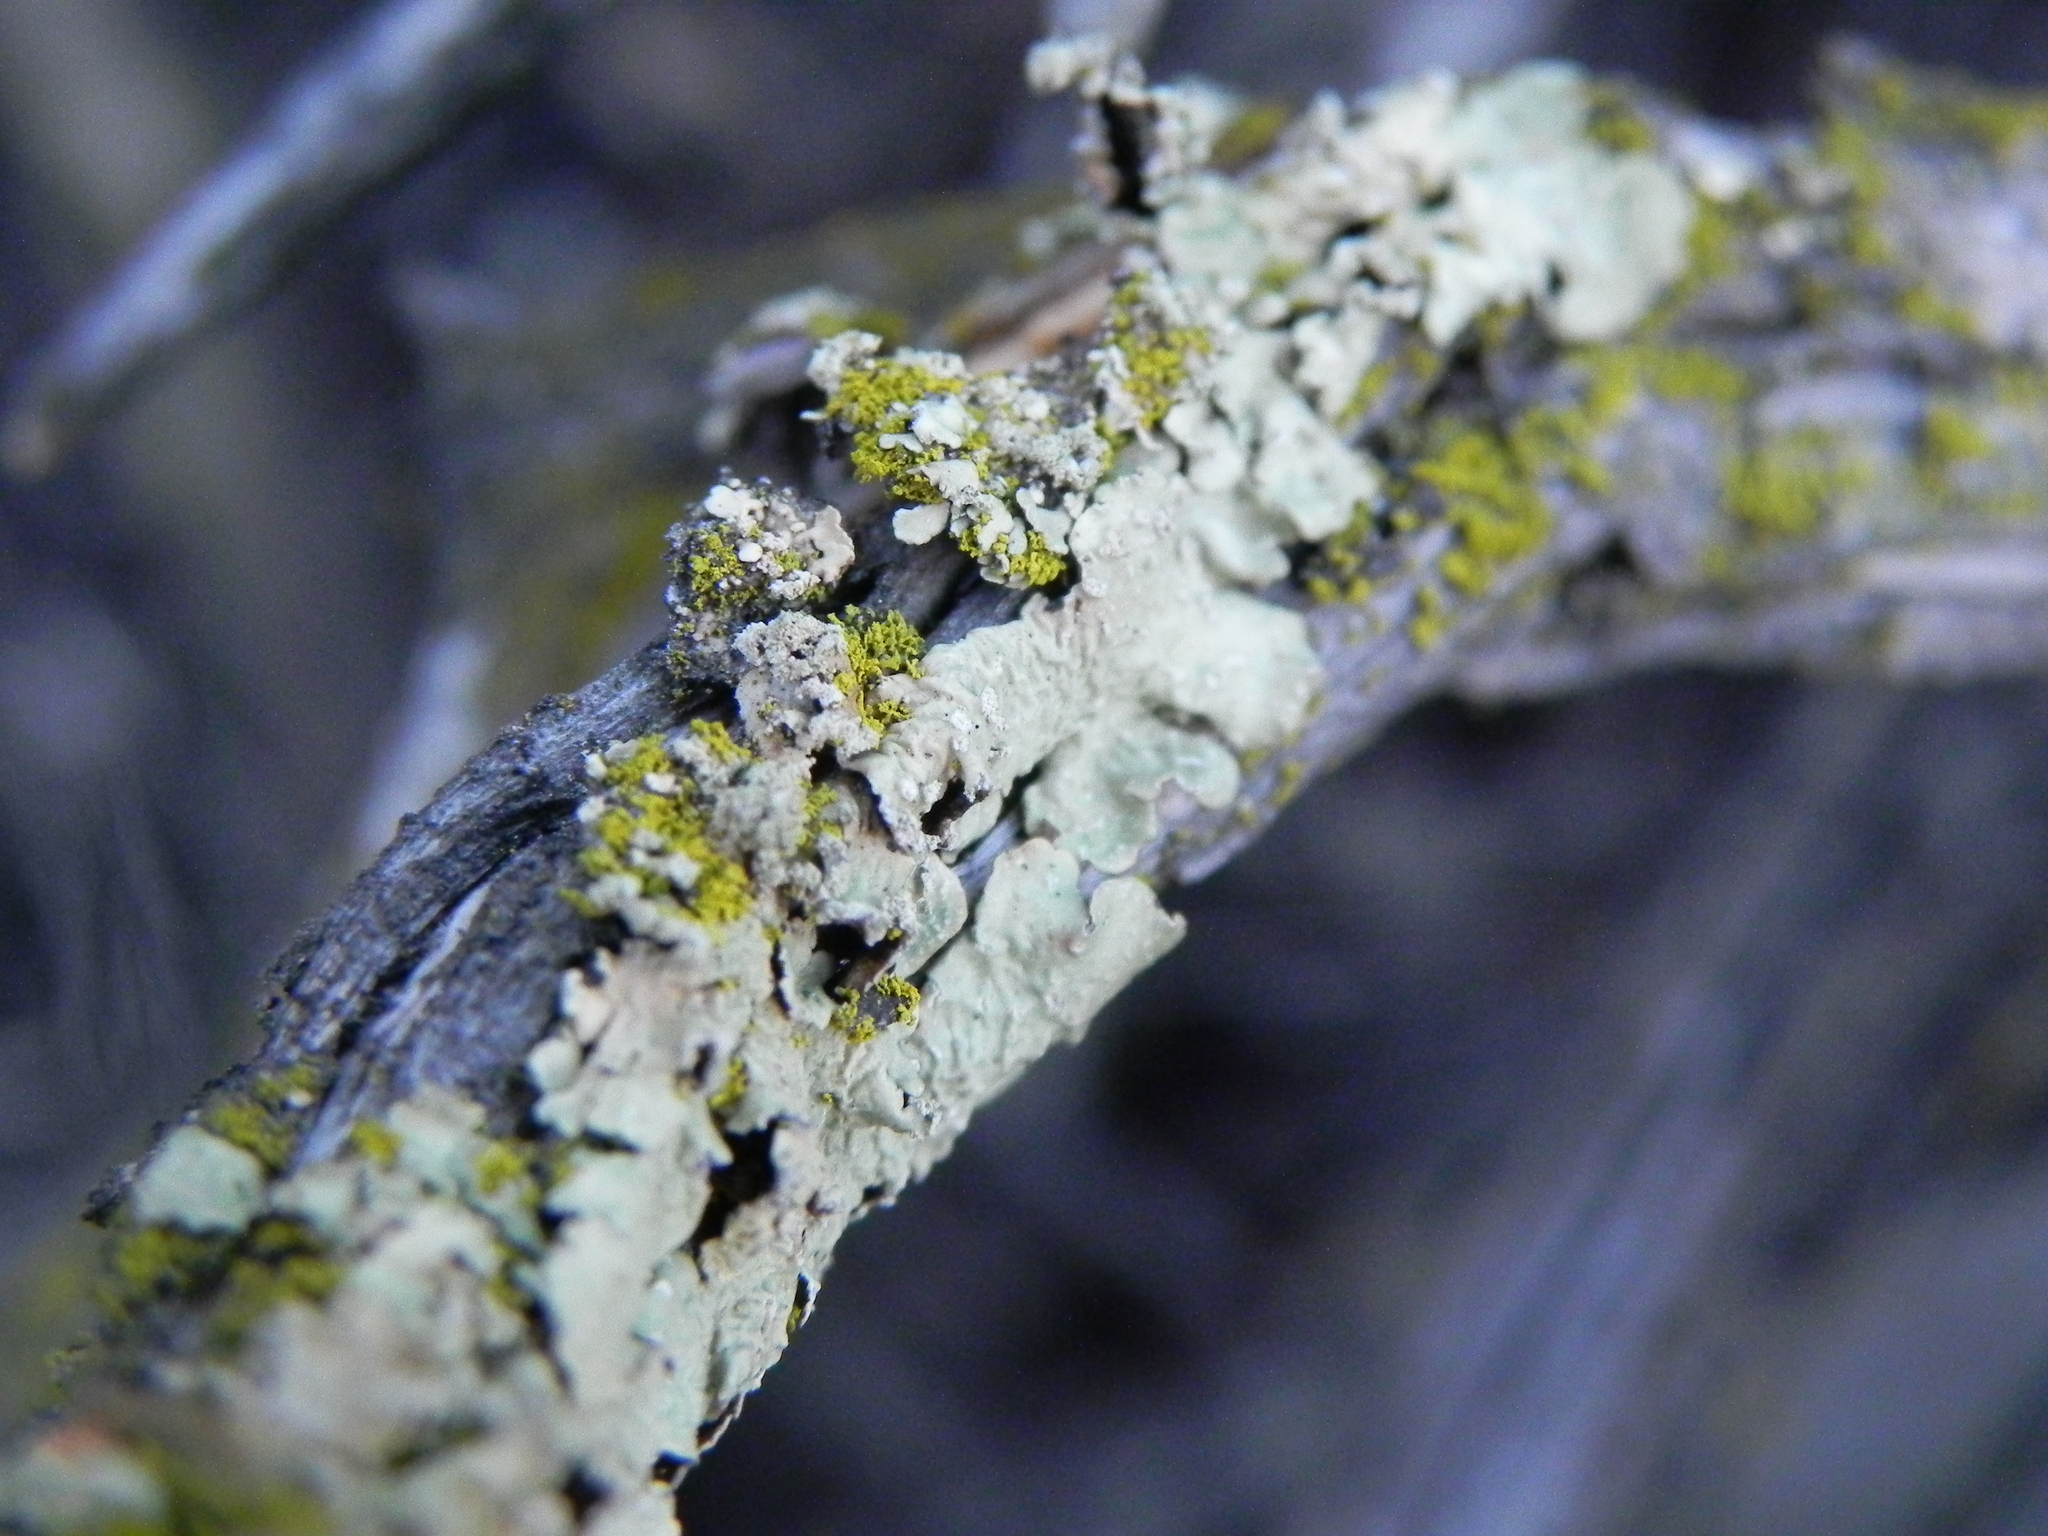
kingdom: Fungi
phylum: Ascomycota
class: Lecanoromycetes
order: Lecanorales
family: Parmeliaceae
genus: Flavoparmelia
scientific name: Flavoparmelia caperata
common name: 40-mile per hour lichen
